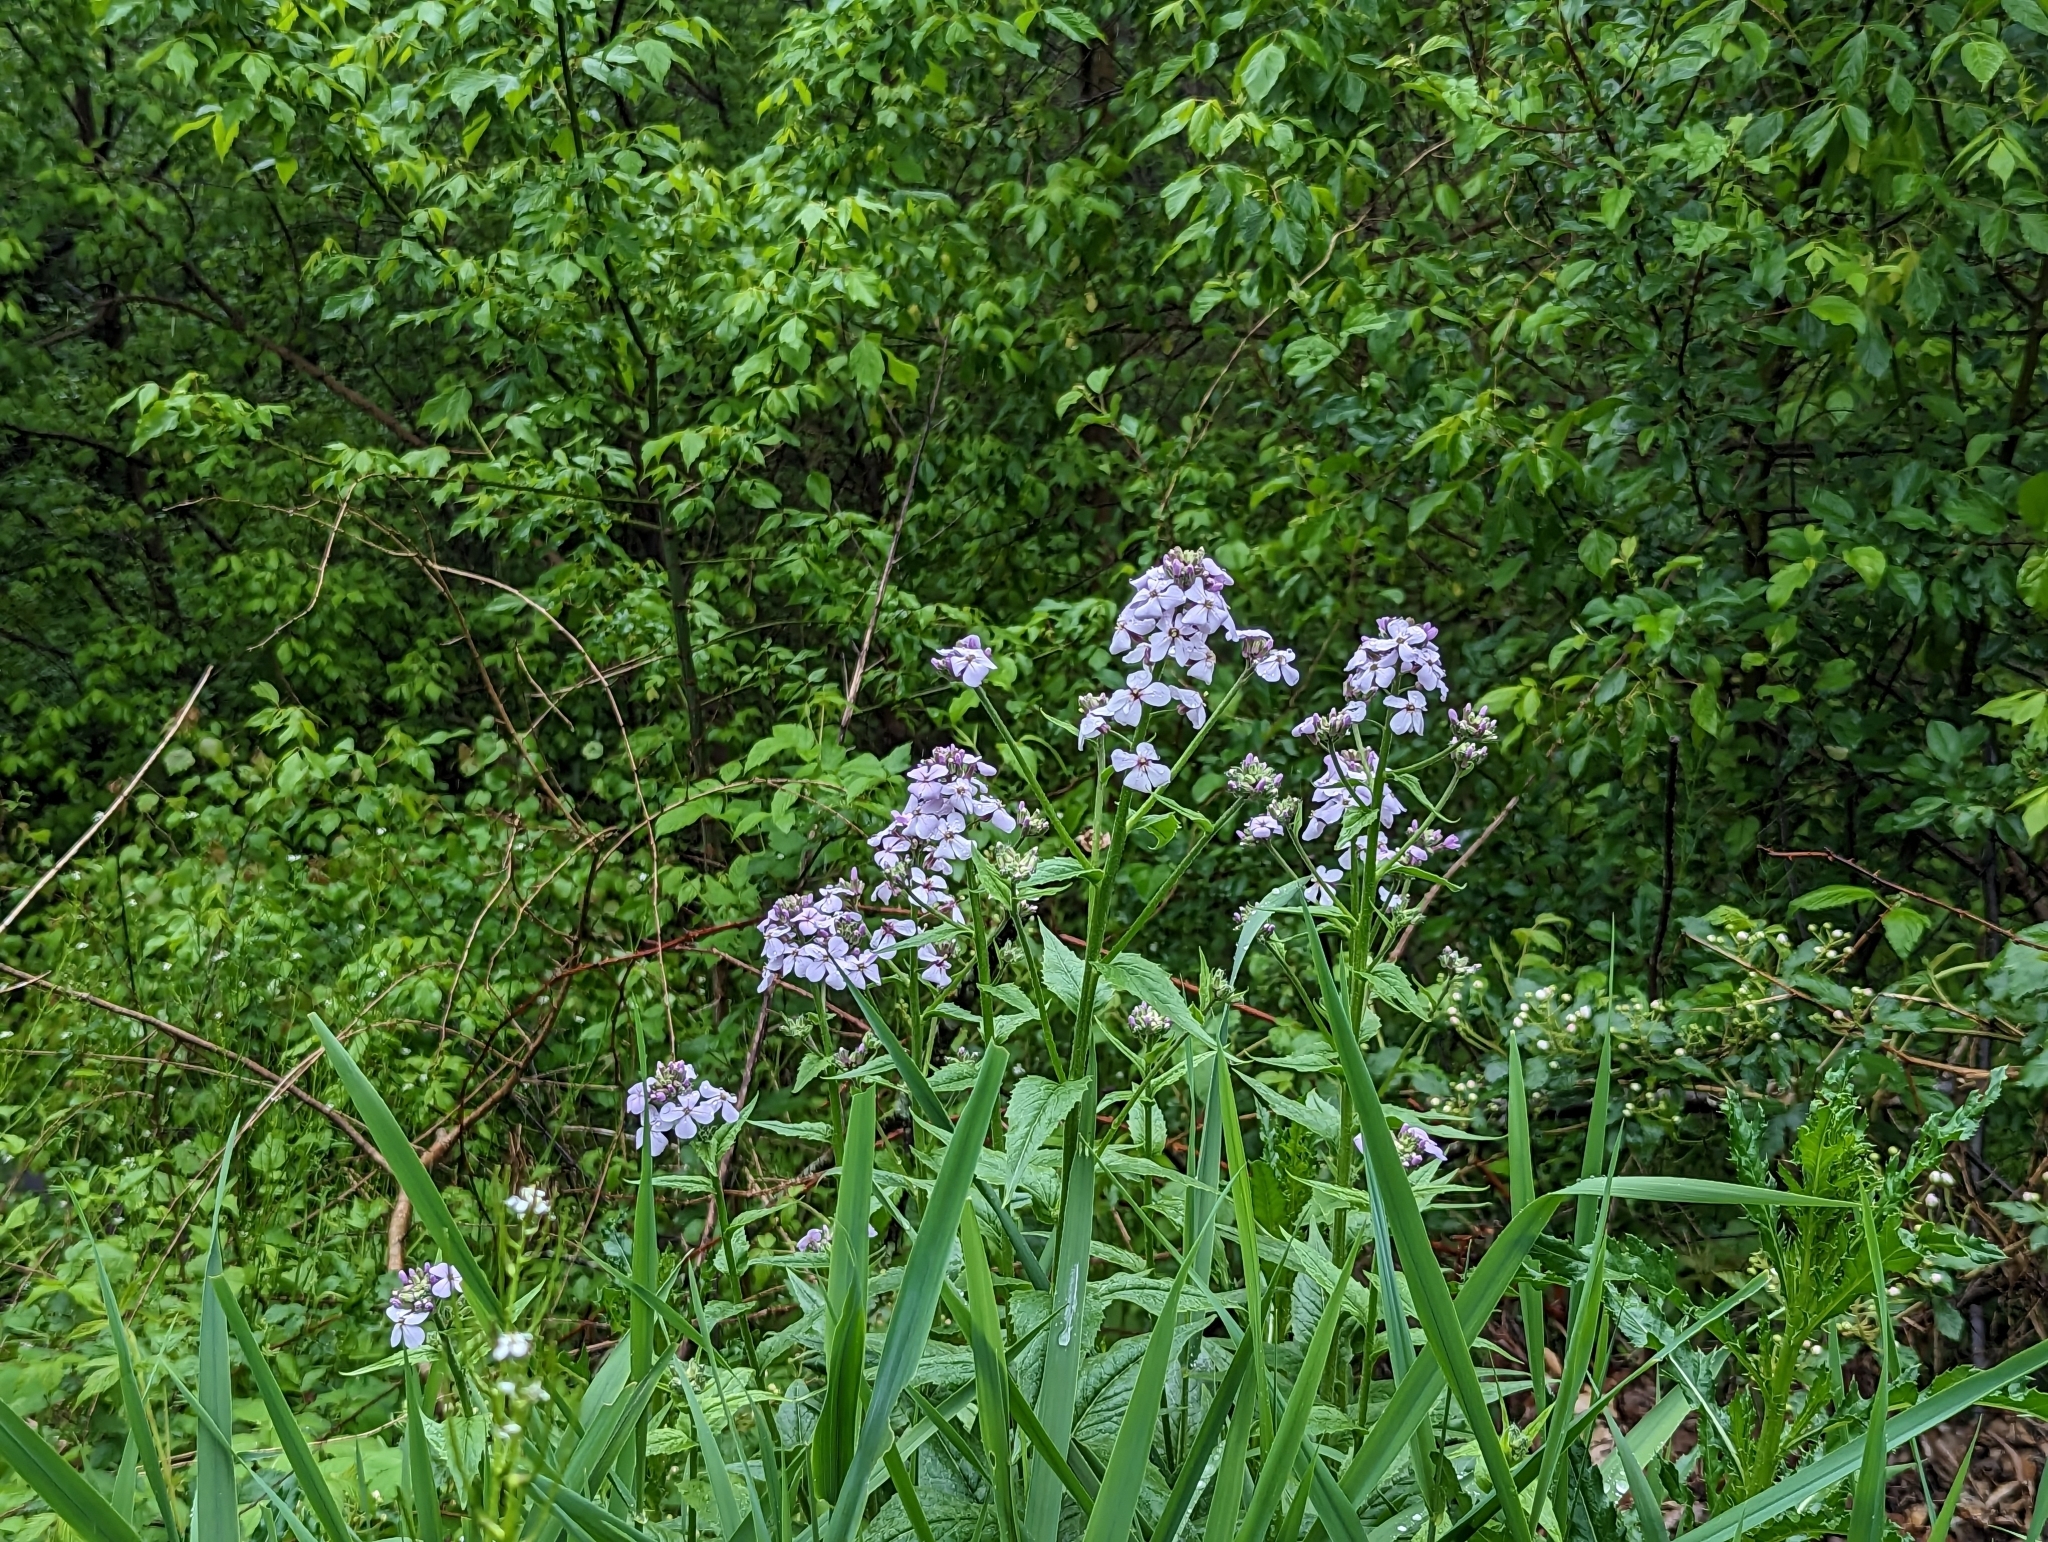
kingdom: Plantae
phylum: Tracheophyta
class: Magnoliopsida
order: Brassicales
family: Brassicaceae
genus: Hesperis
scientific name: Hesperis matronalis
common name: Dame's-violet
